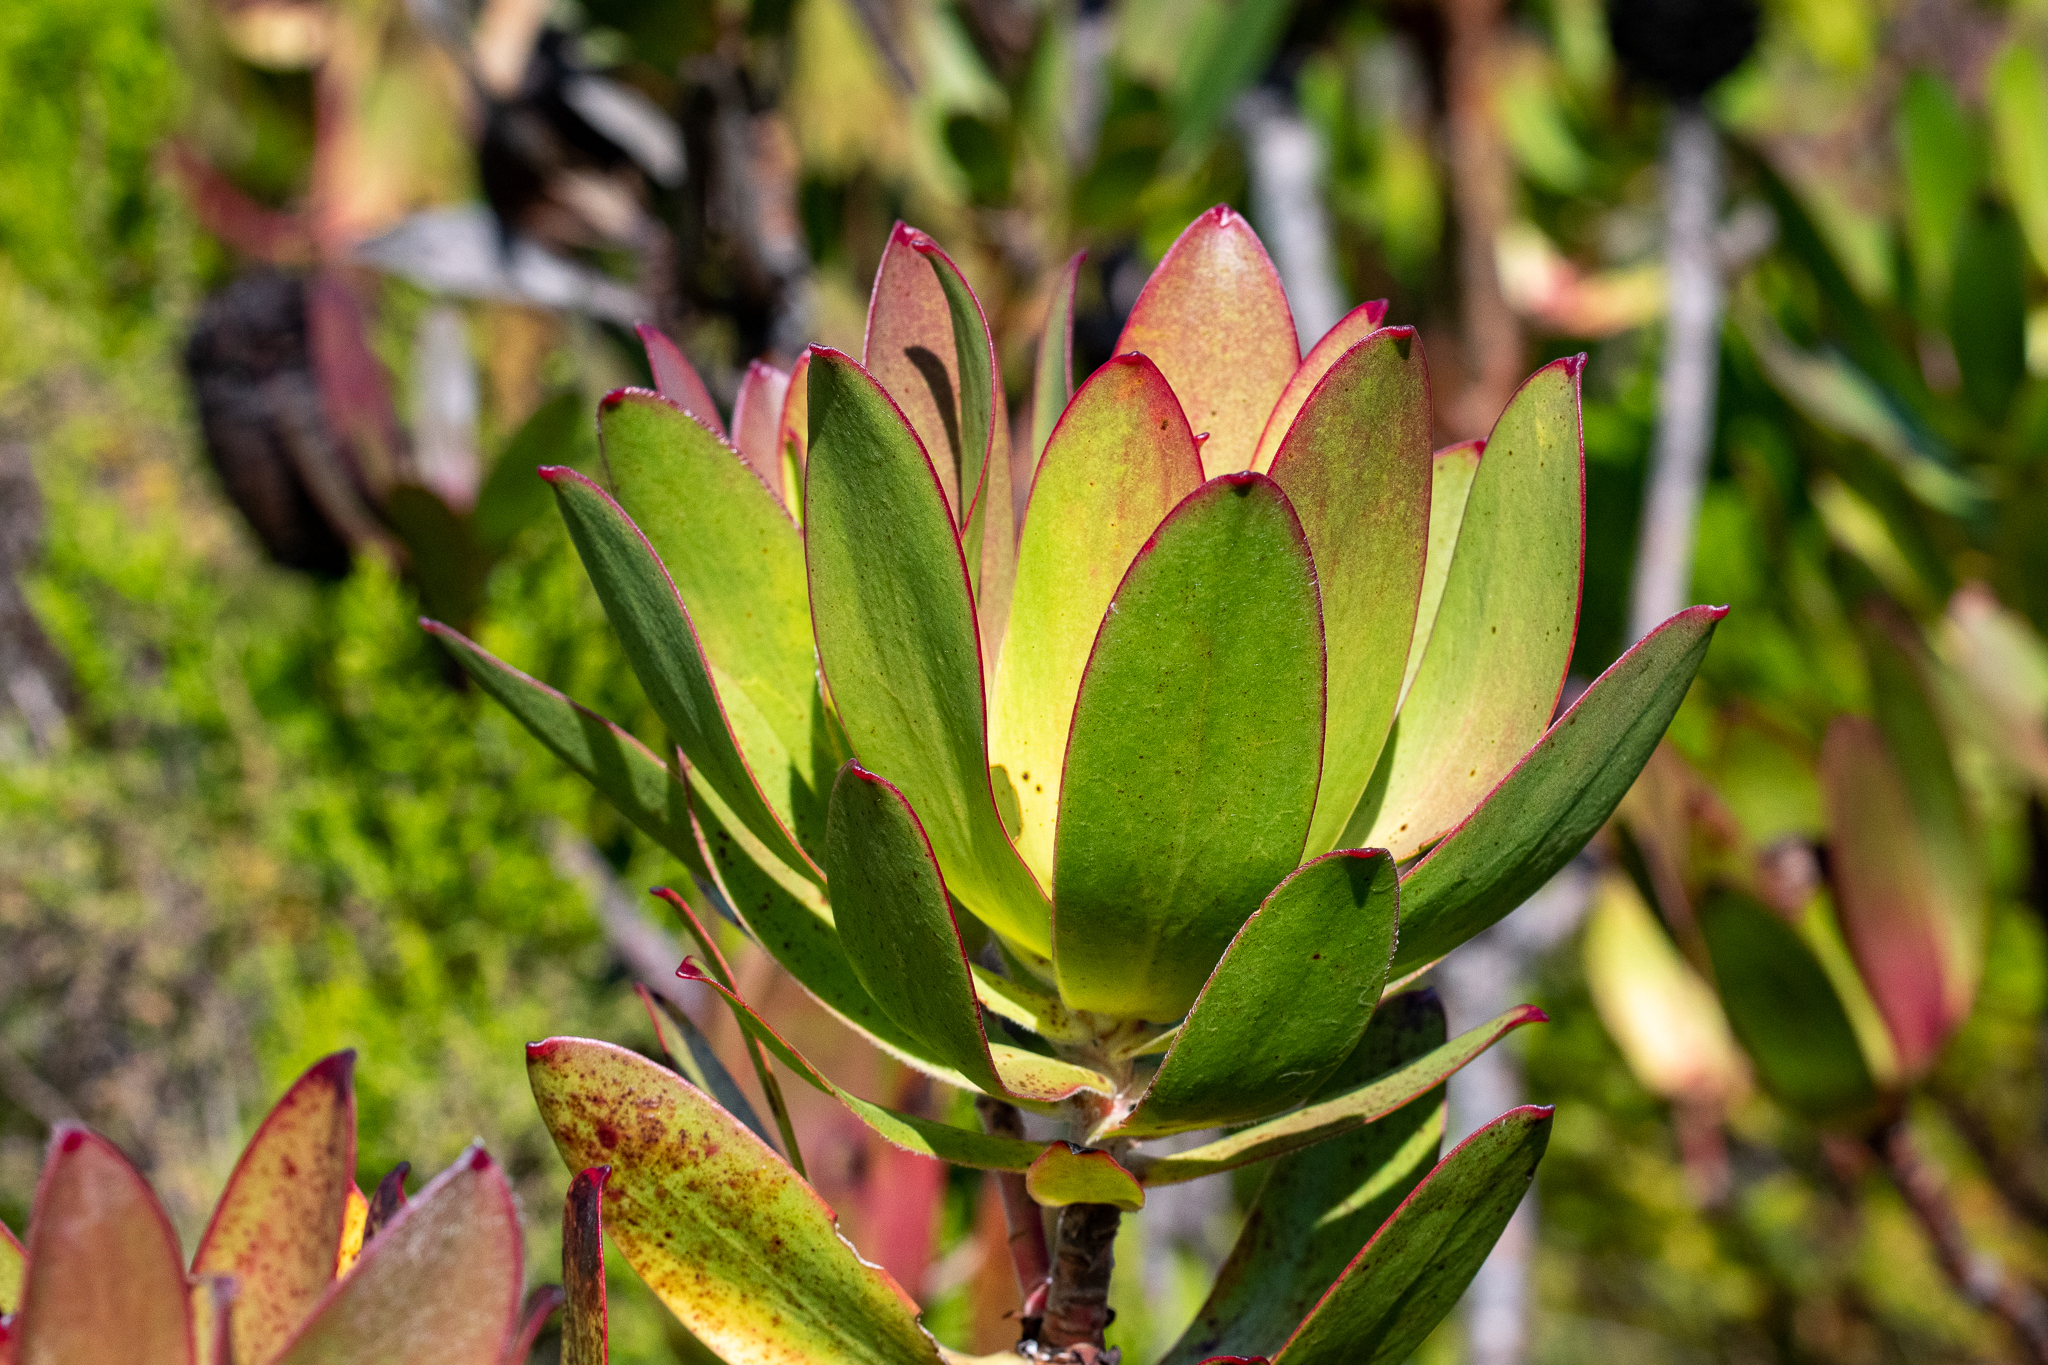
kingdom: Plantae
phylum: Tracheophyta
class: Magnoliopsida
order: Proteales
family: Proteaceae
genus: Leucadendron
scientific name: Leucadendron gandogeri
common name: Broad-leaf conebush
